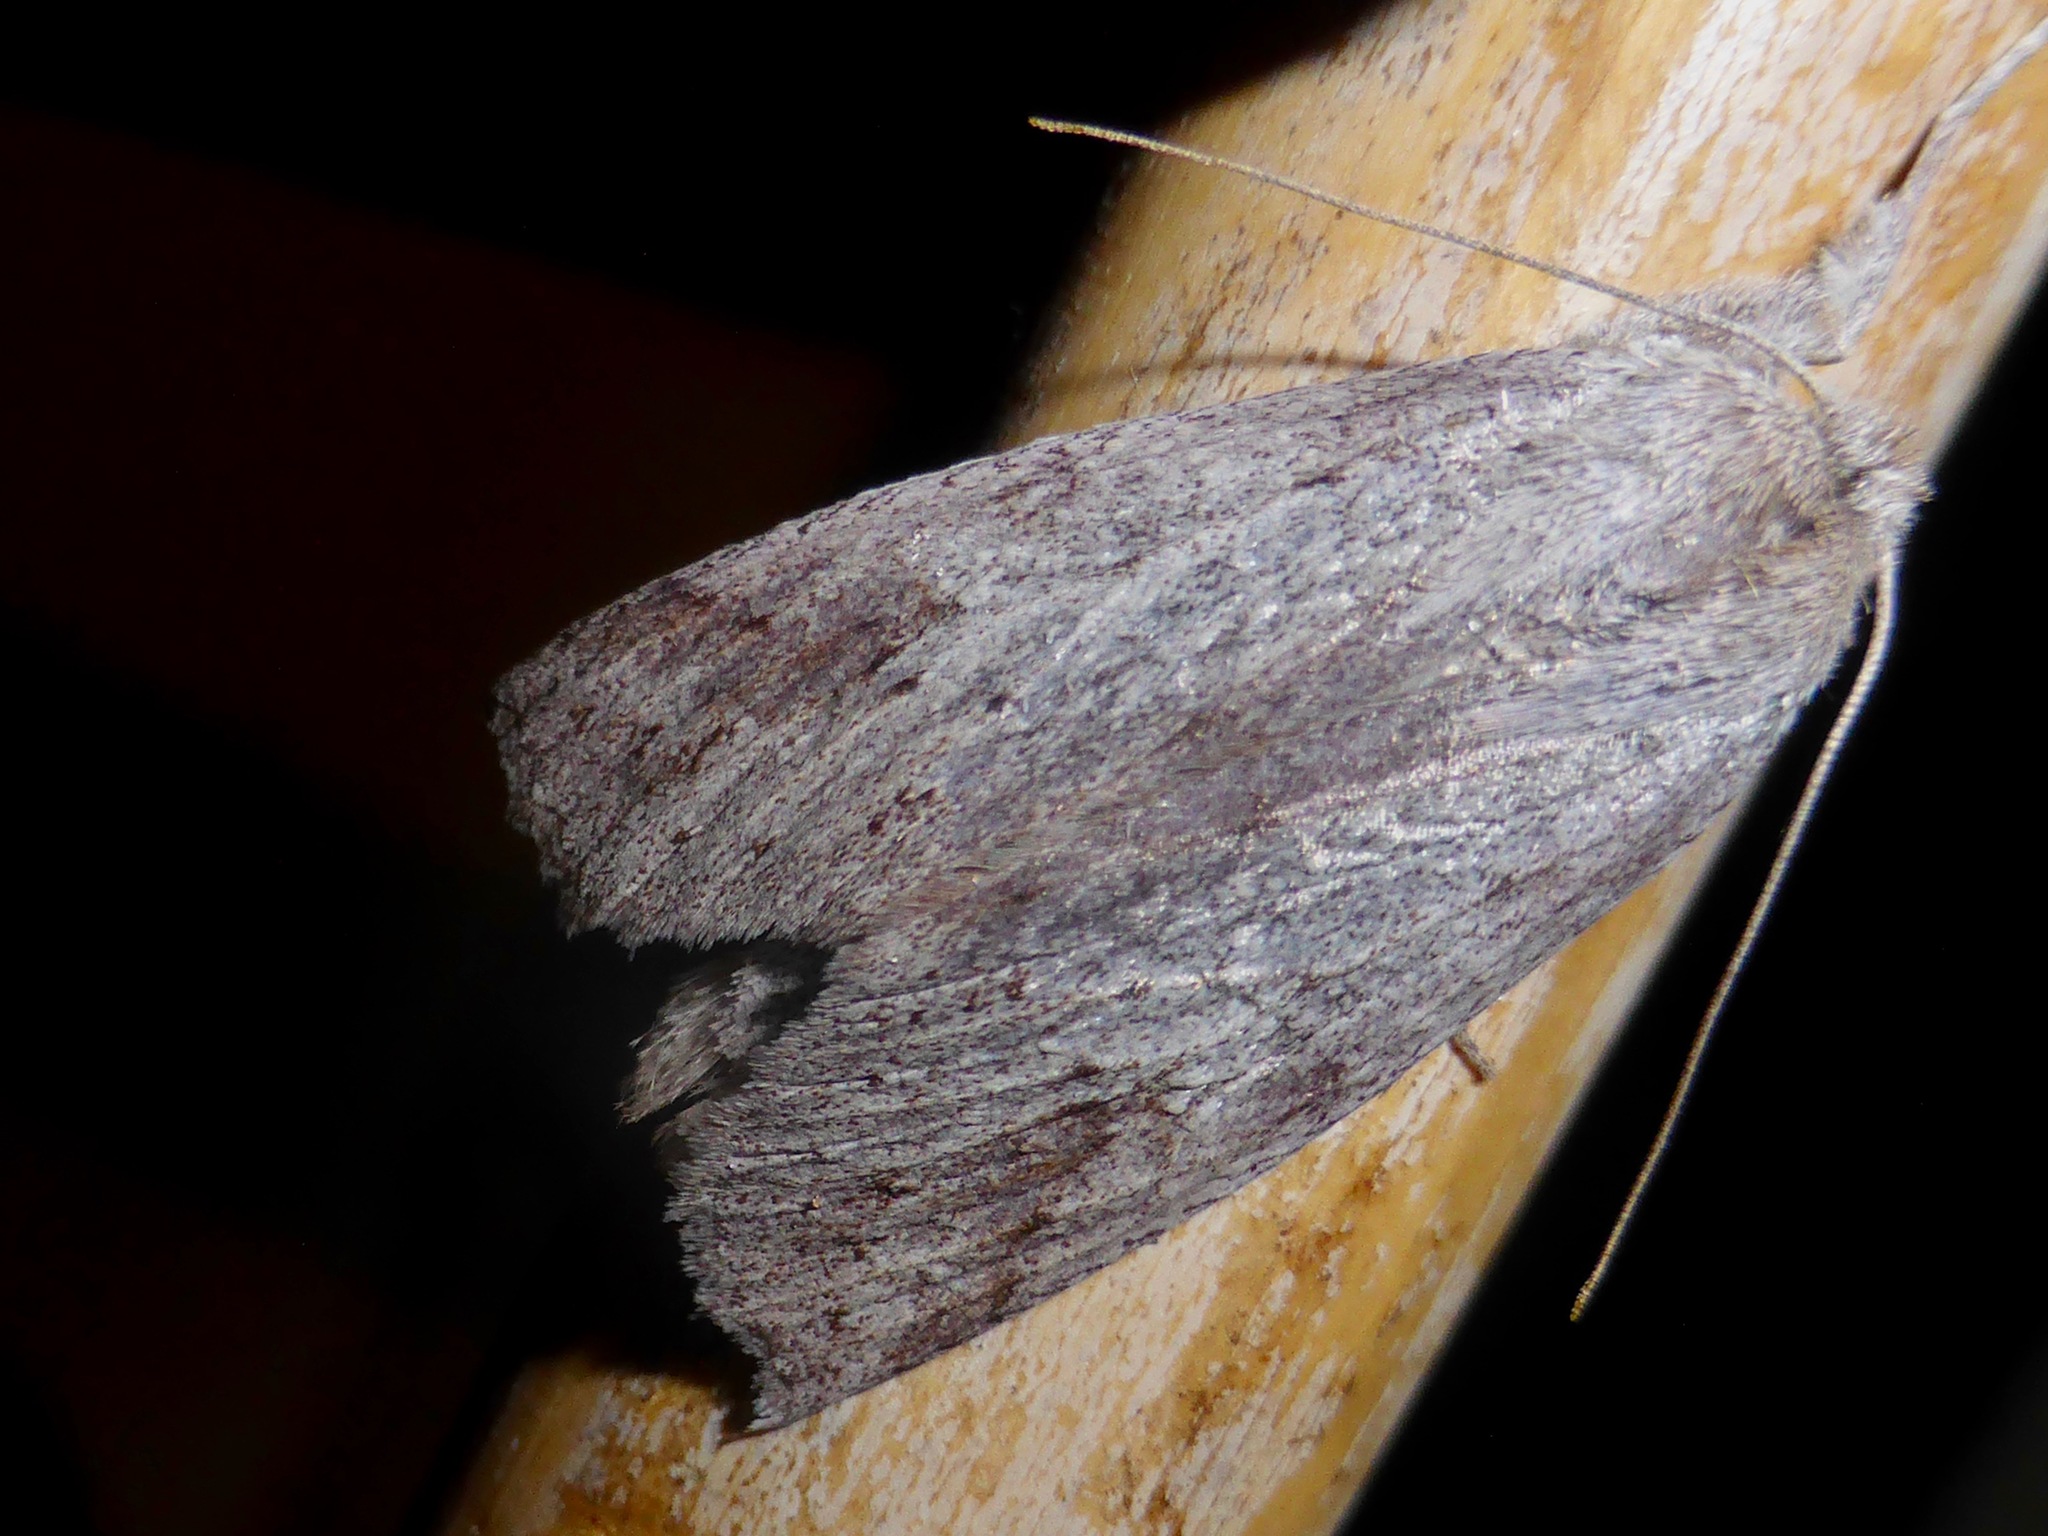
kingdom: Animalia
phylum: Arthropoda
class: Insecta
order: Lepidoptera
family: Geometridae
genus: Declana
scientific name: Declana leptomera
